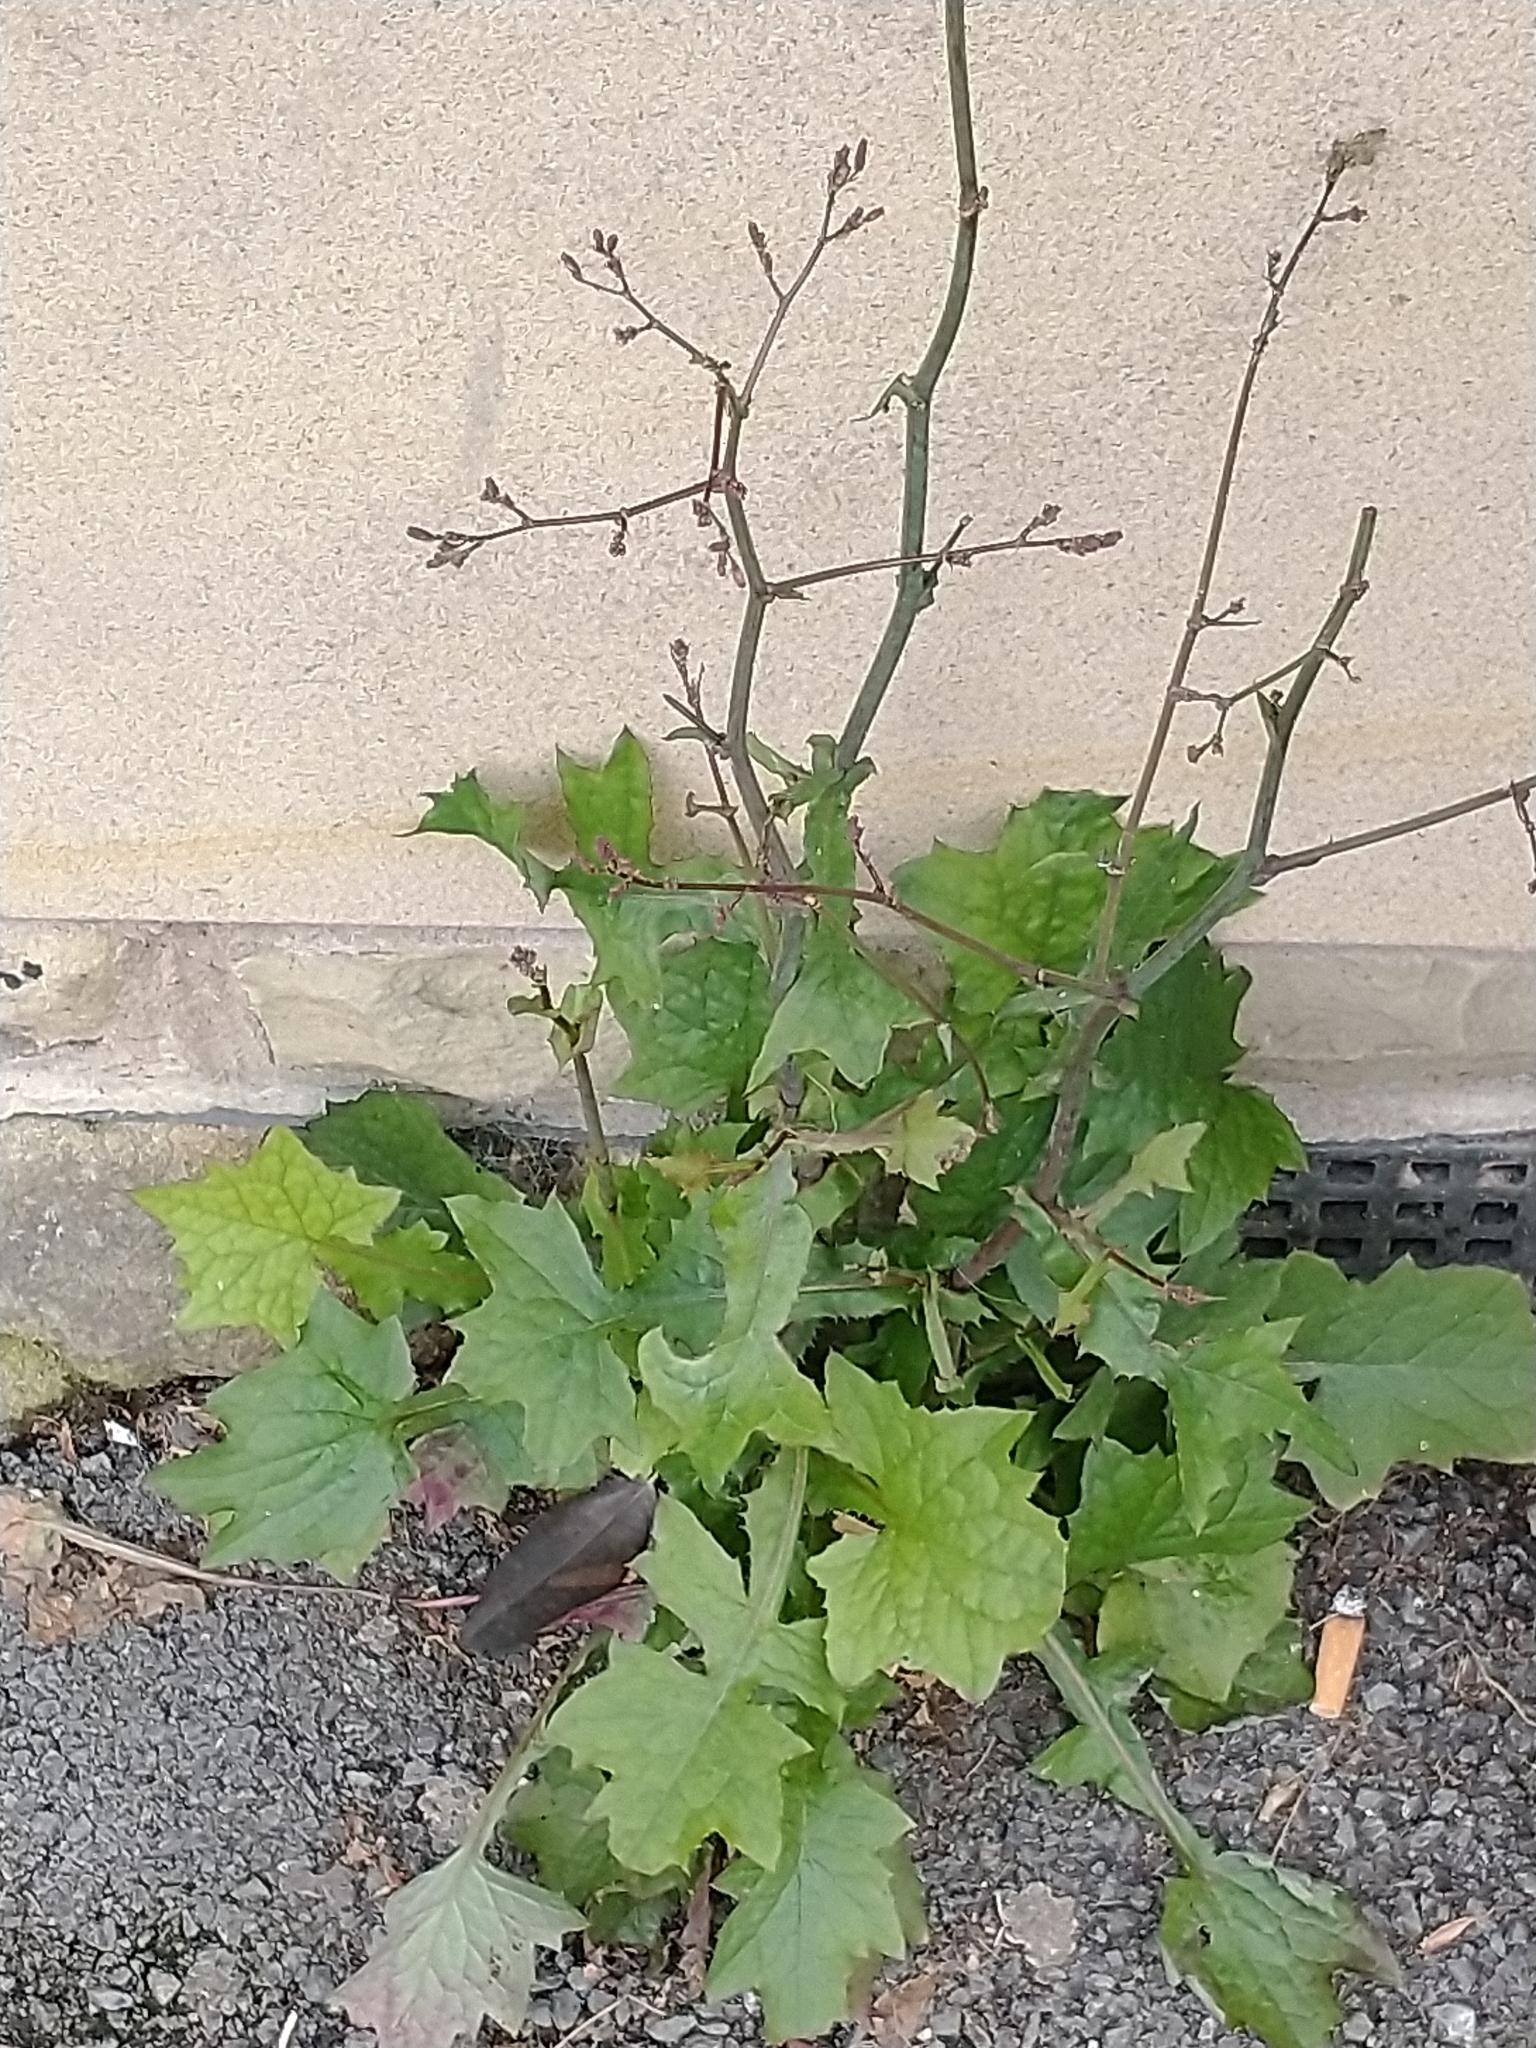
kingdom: Plantae
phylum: Tracheophyta
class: Magnoliopsida
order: Asterales
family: Asteraceae
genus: Mycelis
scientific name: Mycelis muralis
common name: Wall lettuce
